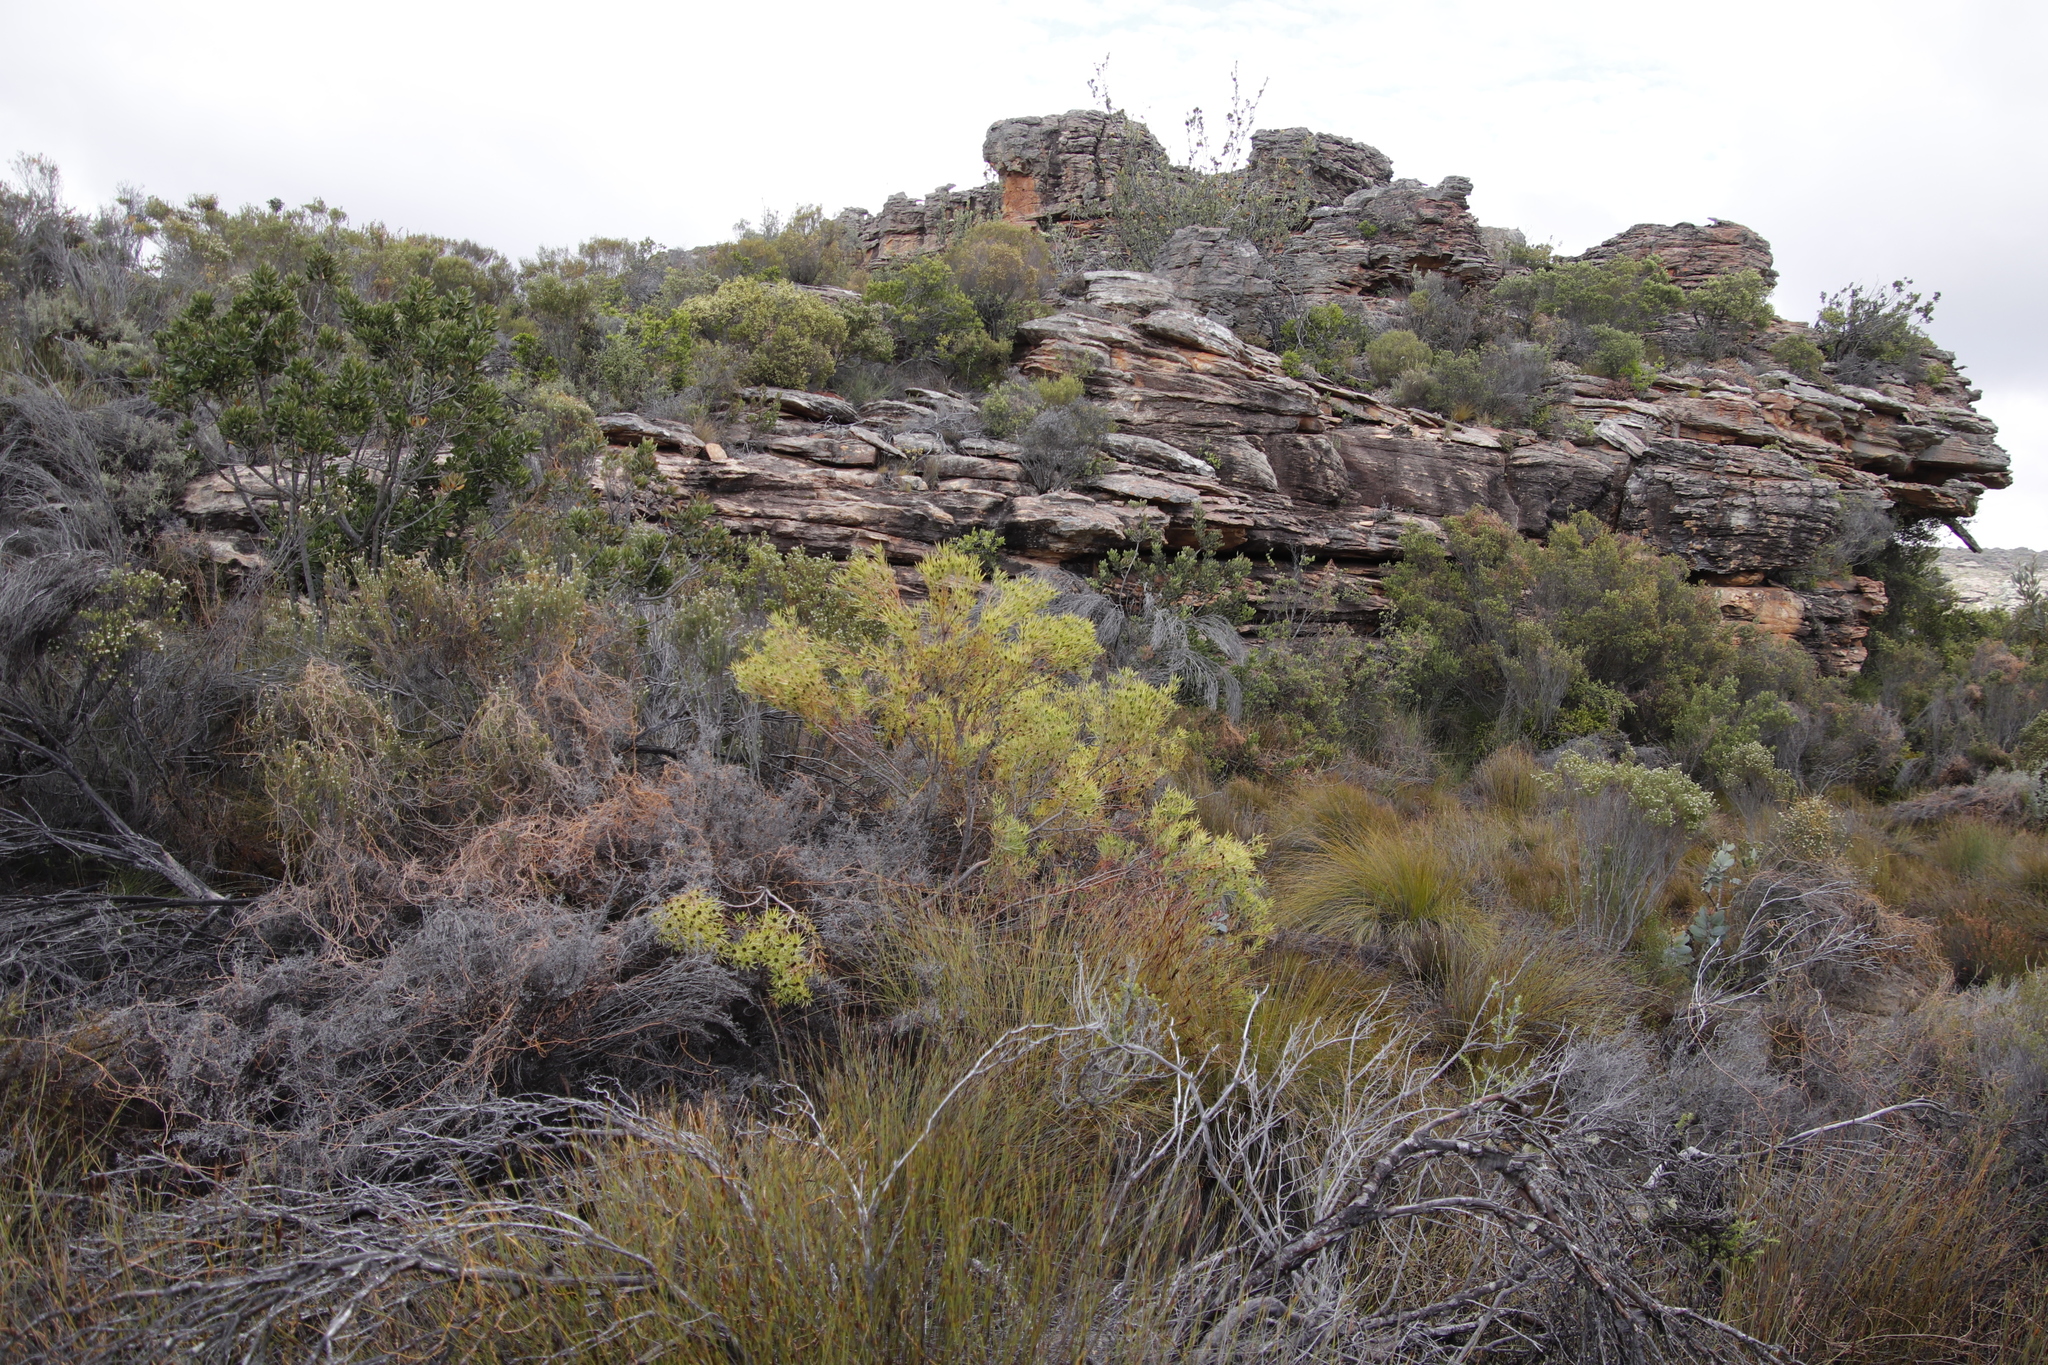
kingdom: Plantae
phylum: Tracheophyta
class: Magnoliopsida
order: Proteales
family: Proteaceae
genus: Leucadendron
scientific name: Leucadendron salignum
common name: Common sunshine conebush
